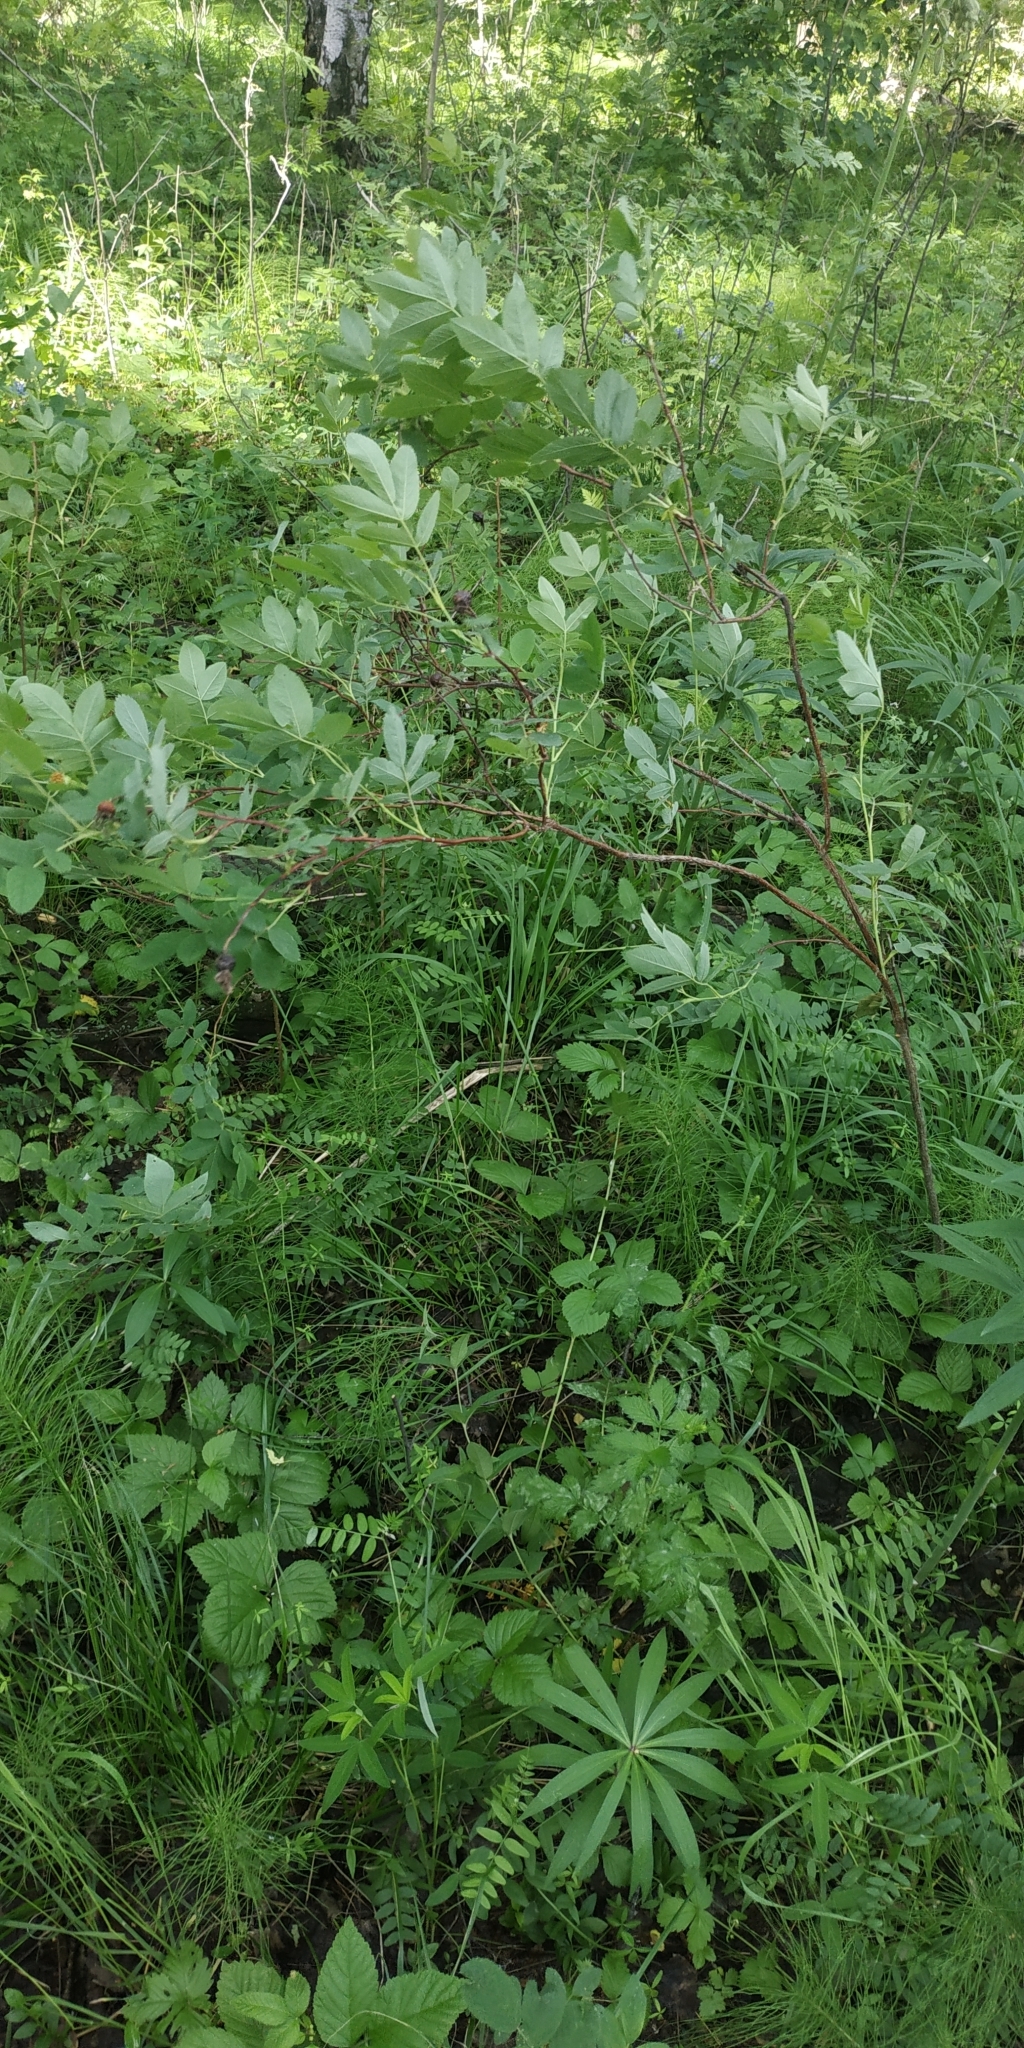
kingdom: Plantae
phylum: Tracheophyta
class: Magnoliopsida
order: Rosales
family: Rosaceae
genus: Rosa
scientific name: Rosa majalis
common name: Cinnamon rose
